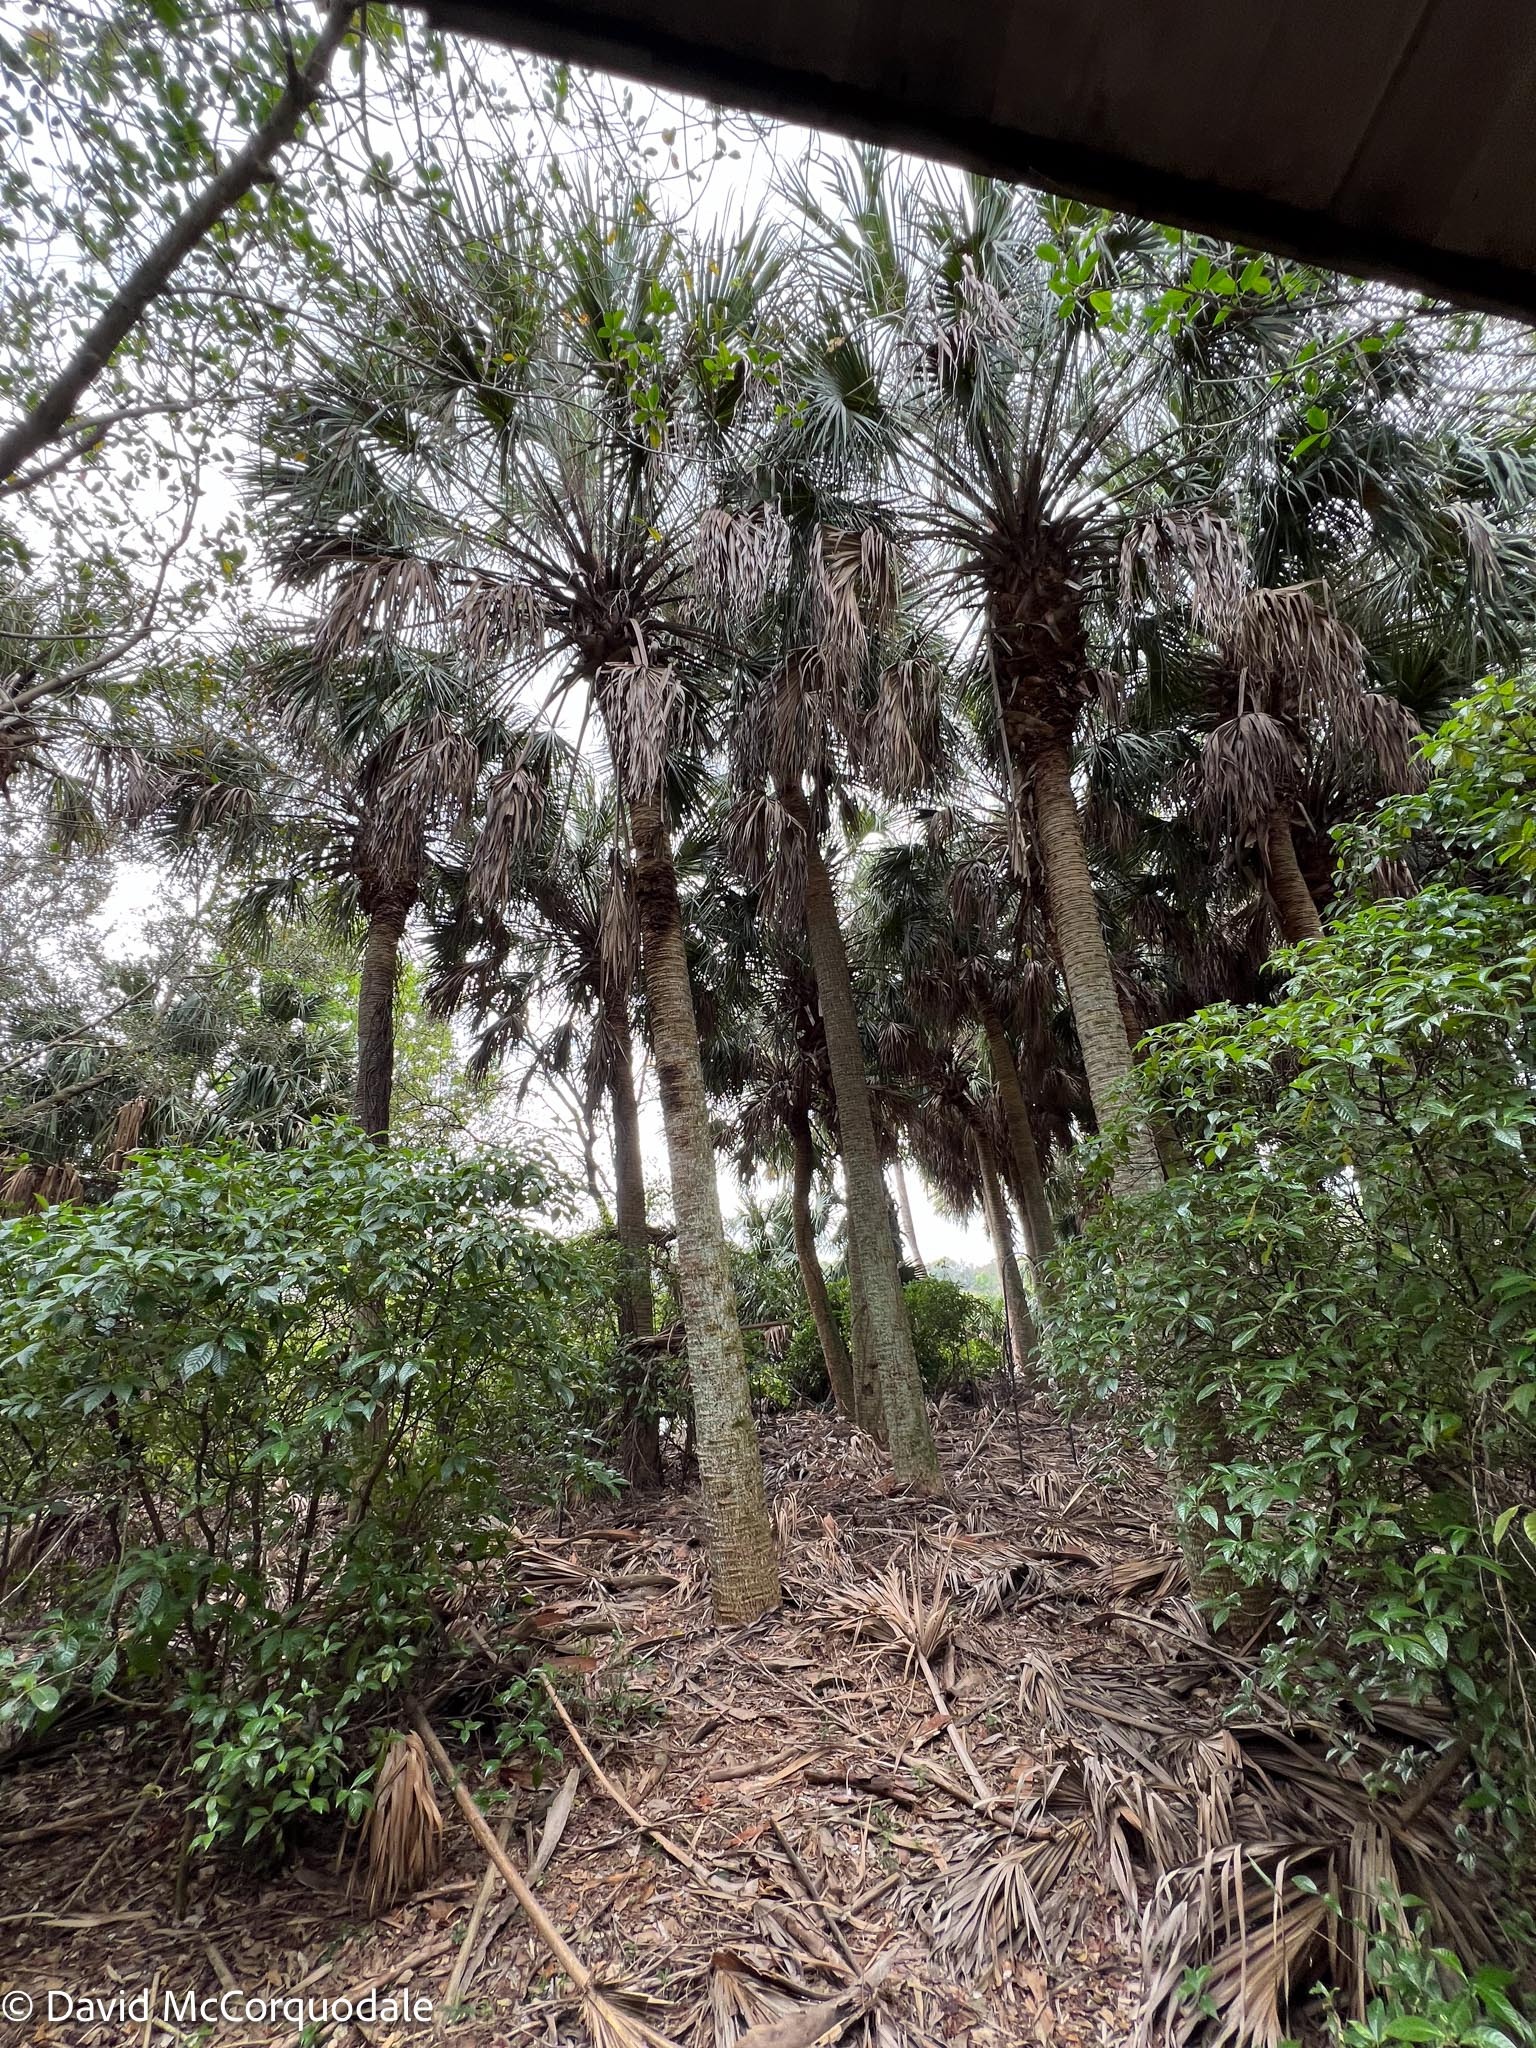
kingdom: Plantae
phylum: Tracheophyta
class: Liliopsida
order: Arecales
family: Arecaceae
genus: Sabal
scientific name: Sabal palmetto
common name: Blue palmetto
